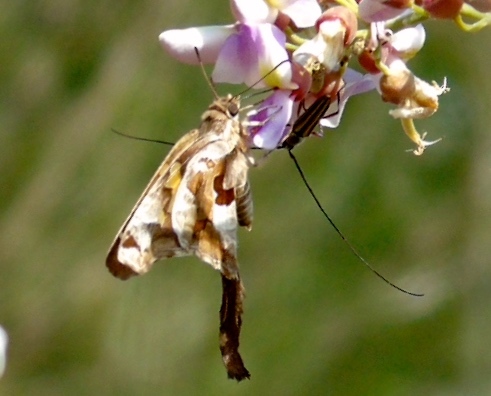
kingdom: Animalia
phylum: Arthropoda
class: Insecta
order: Lepidoptera
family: Hesperiidae
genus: Chioides
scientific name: Chioides zilpa
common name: Zilpa longtail
